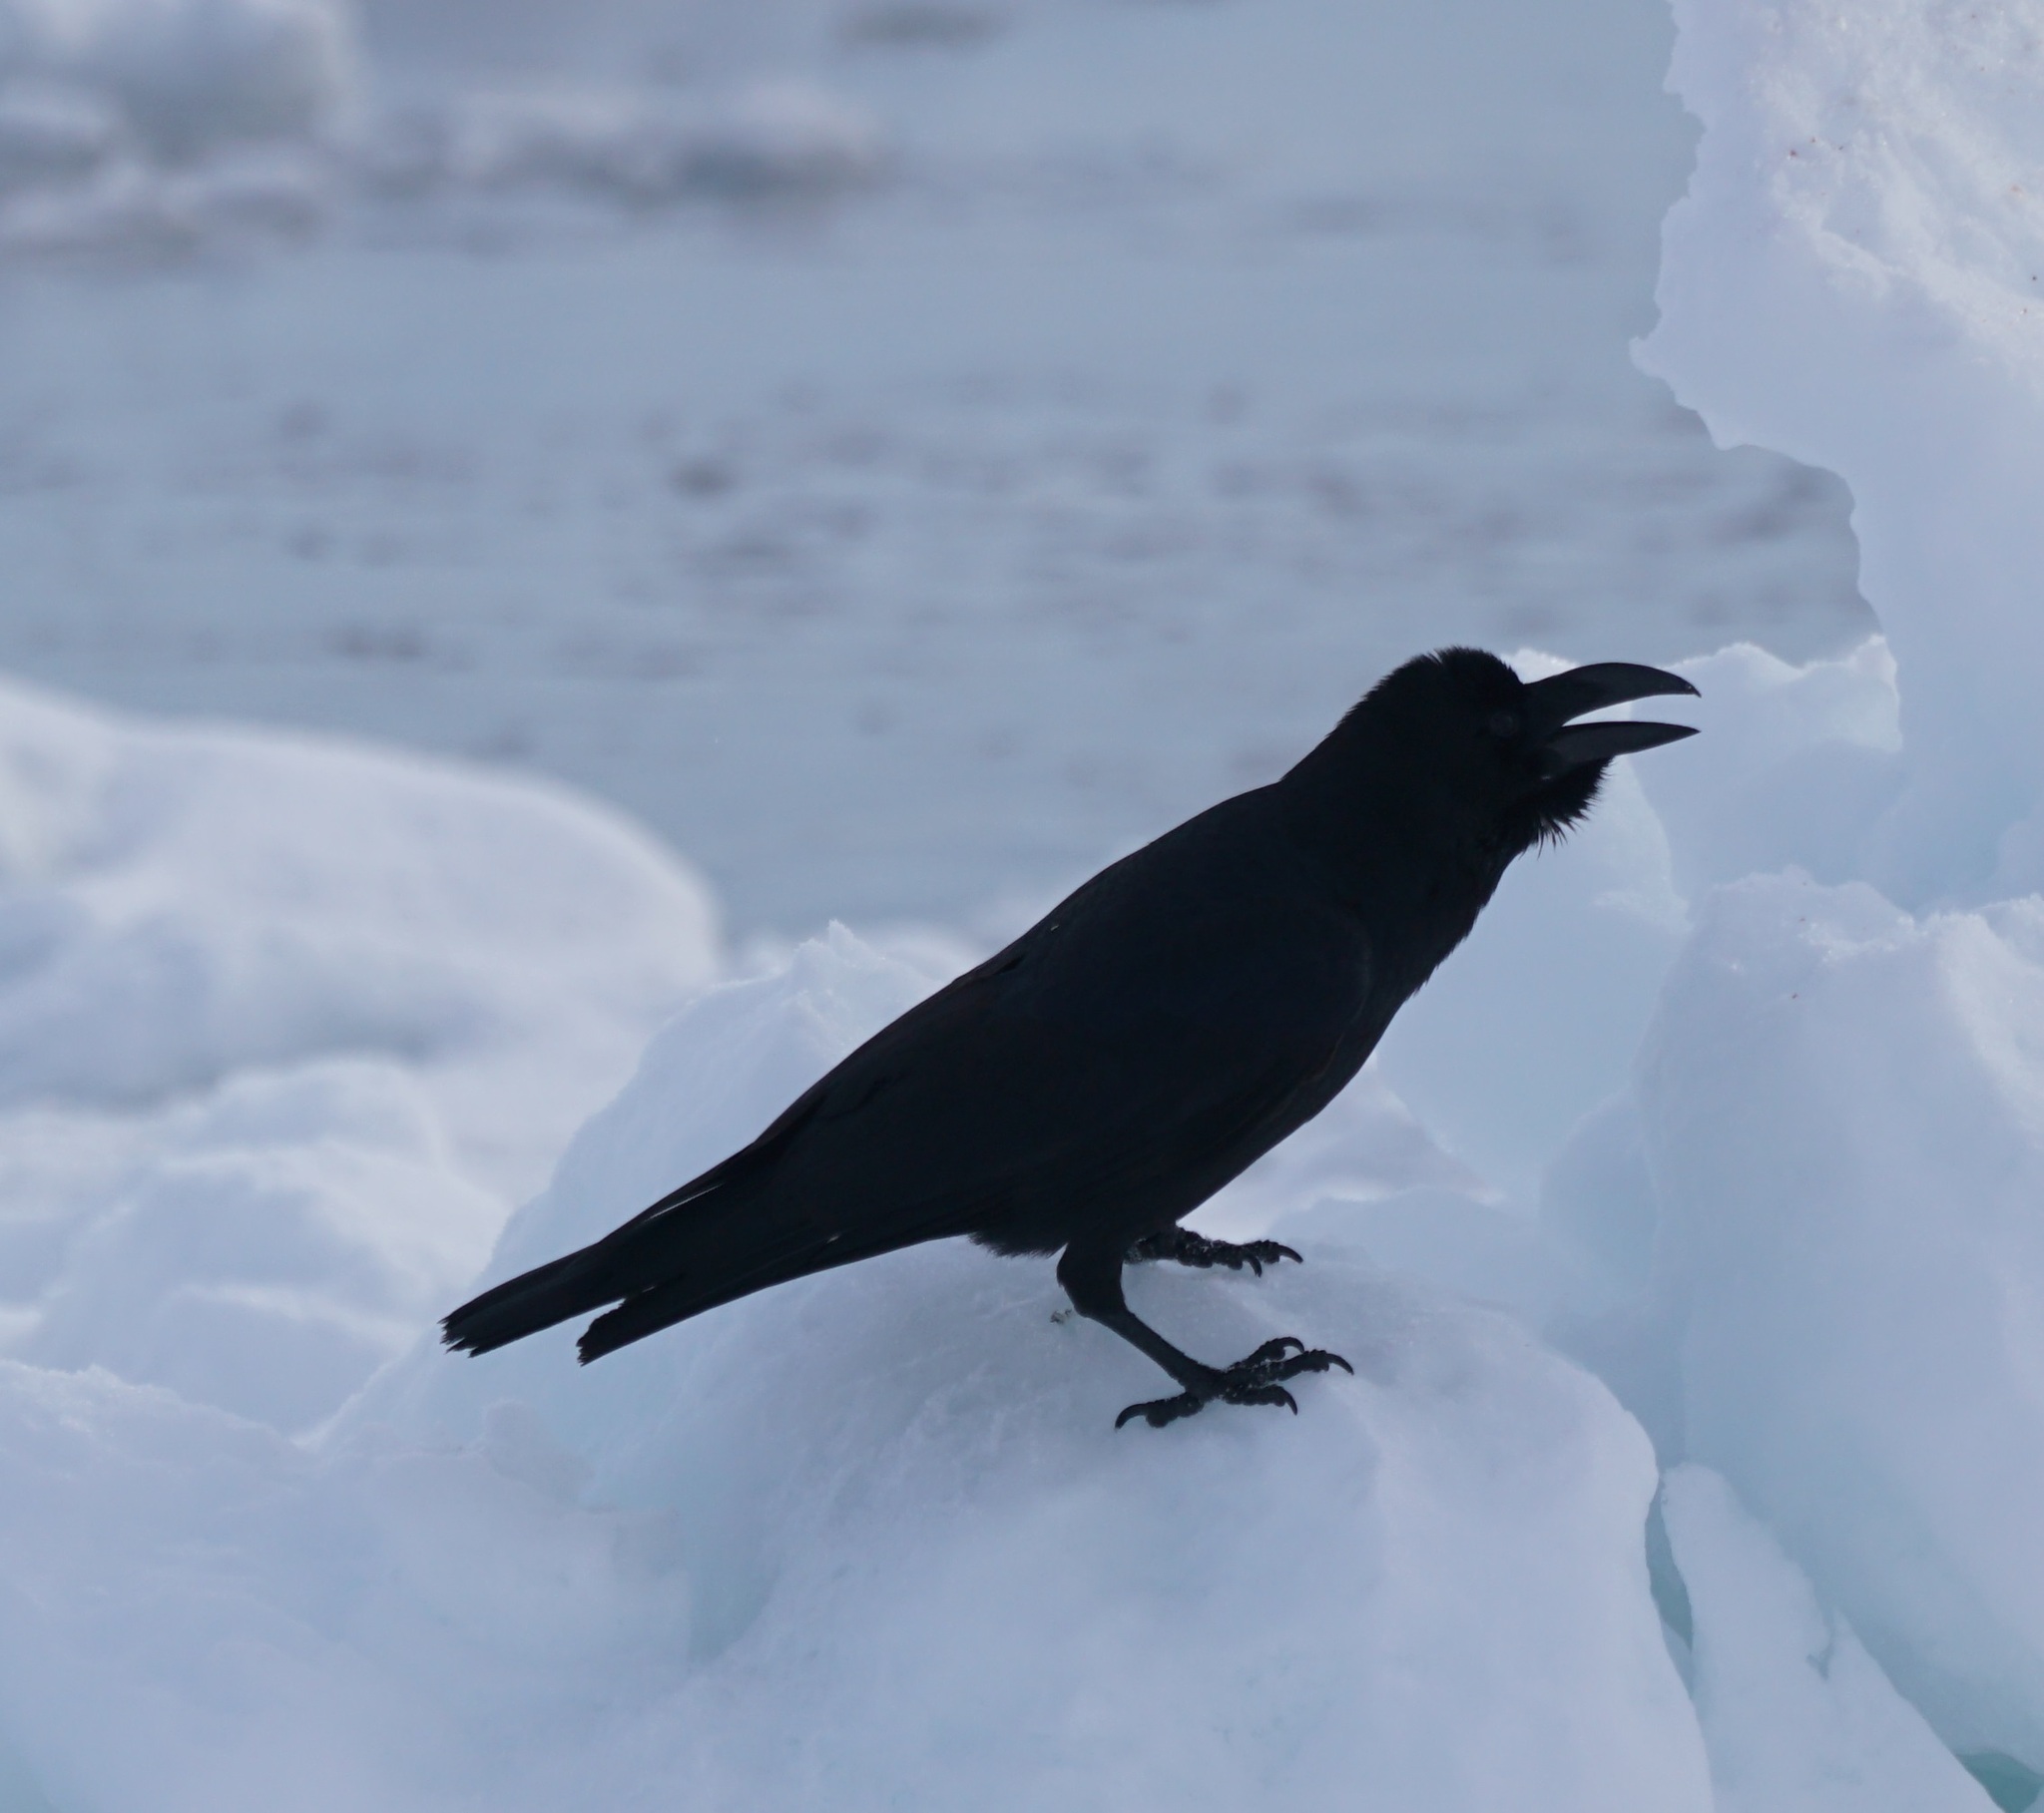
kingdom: Animalia
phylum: Chordata
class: Aves
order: Passeriformes
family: Corvidae
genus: Corvus
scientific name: Corvus macrorhynchos
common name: Large-billed crow
